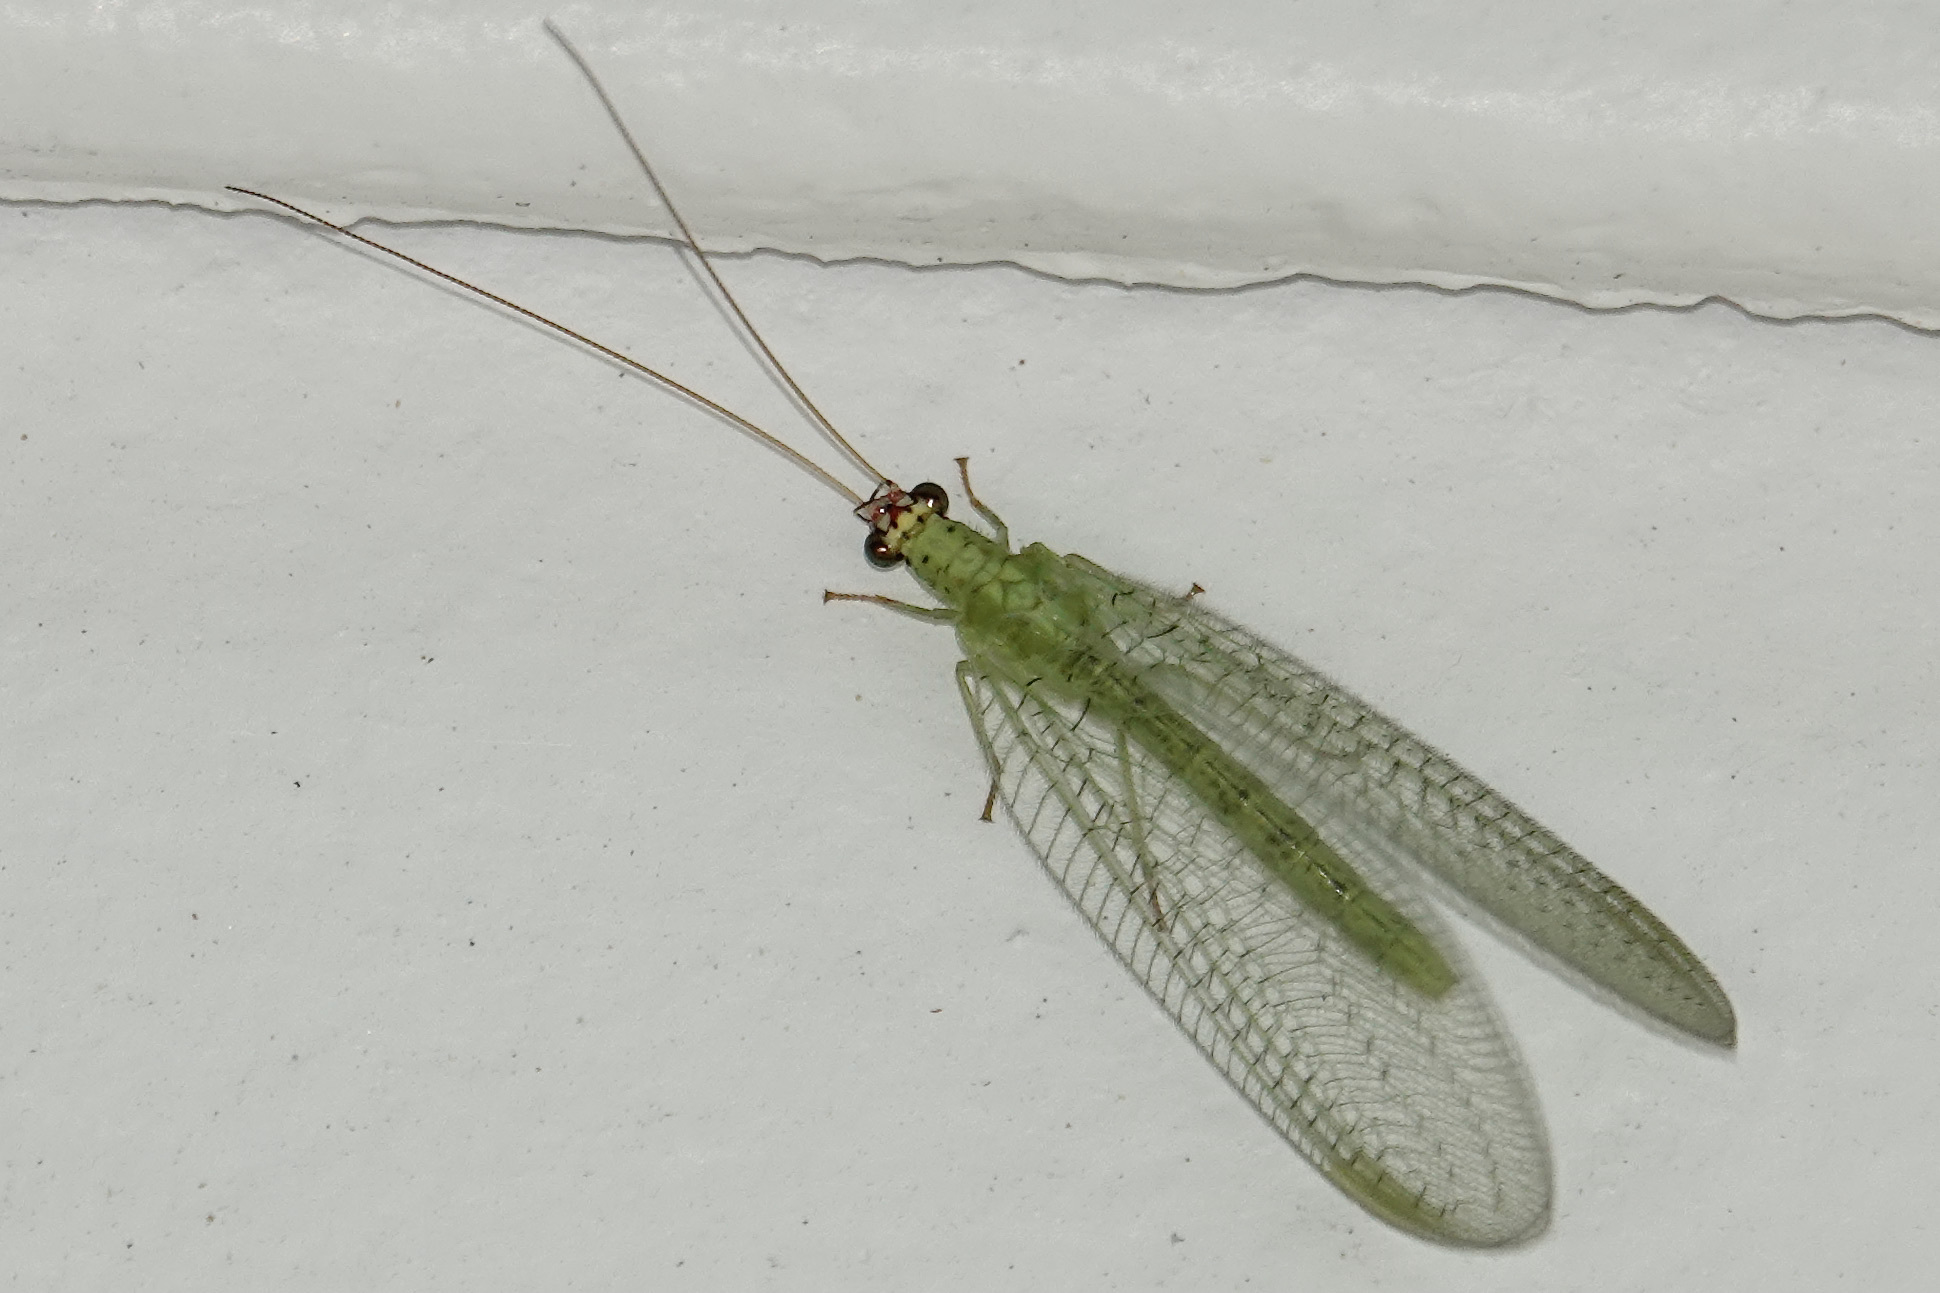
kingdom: Animalia
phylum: Arthropoda
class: Insecta
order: Neuroptera
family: Chrysopidae
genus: Chrysopa
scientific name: Chrysopa oculata
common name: Golden-eyed lacewing
